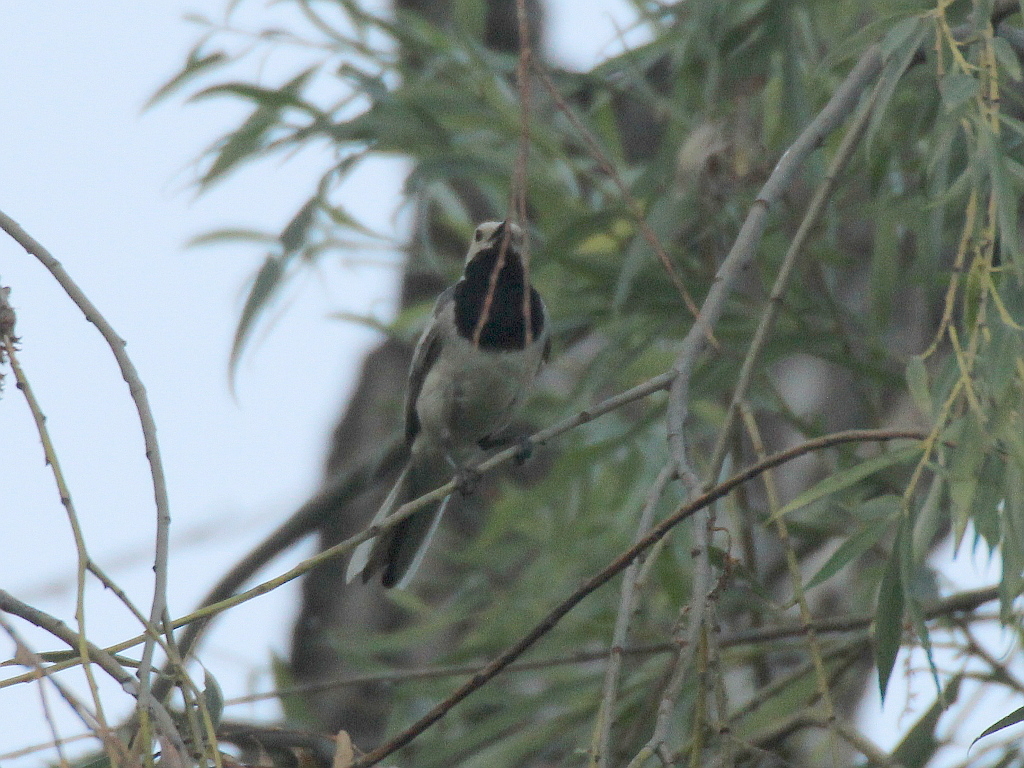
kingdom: Animalia
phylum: Chordata
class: Aves
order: Passeriformes
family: Motacillidae
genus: Motacilla
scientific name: Motacilla alba
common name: White wagtail
